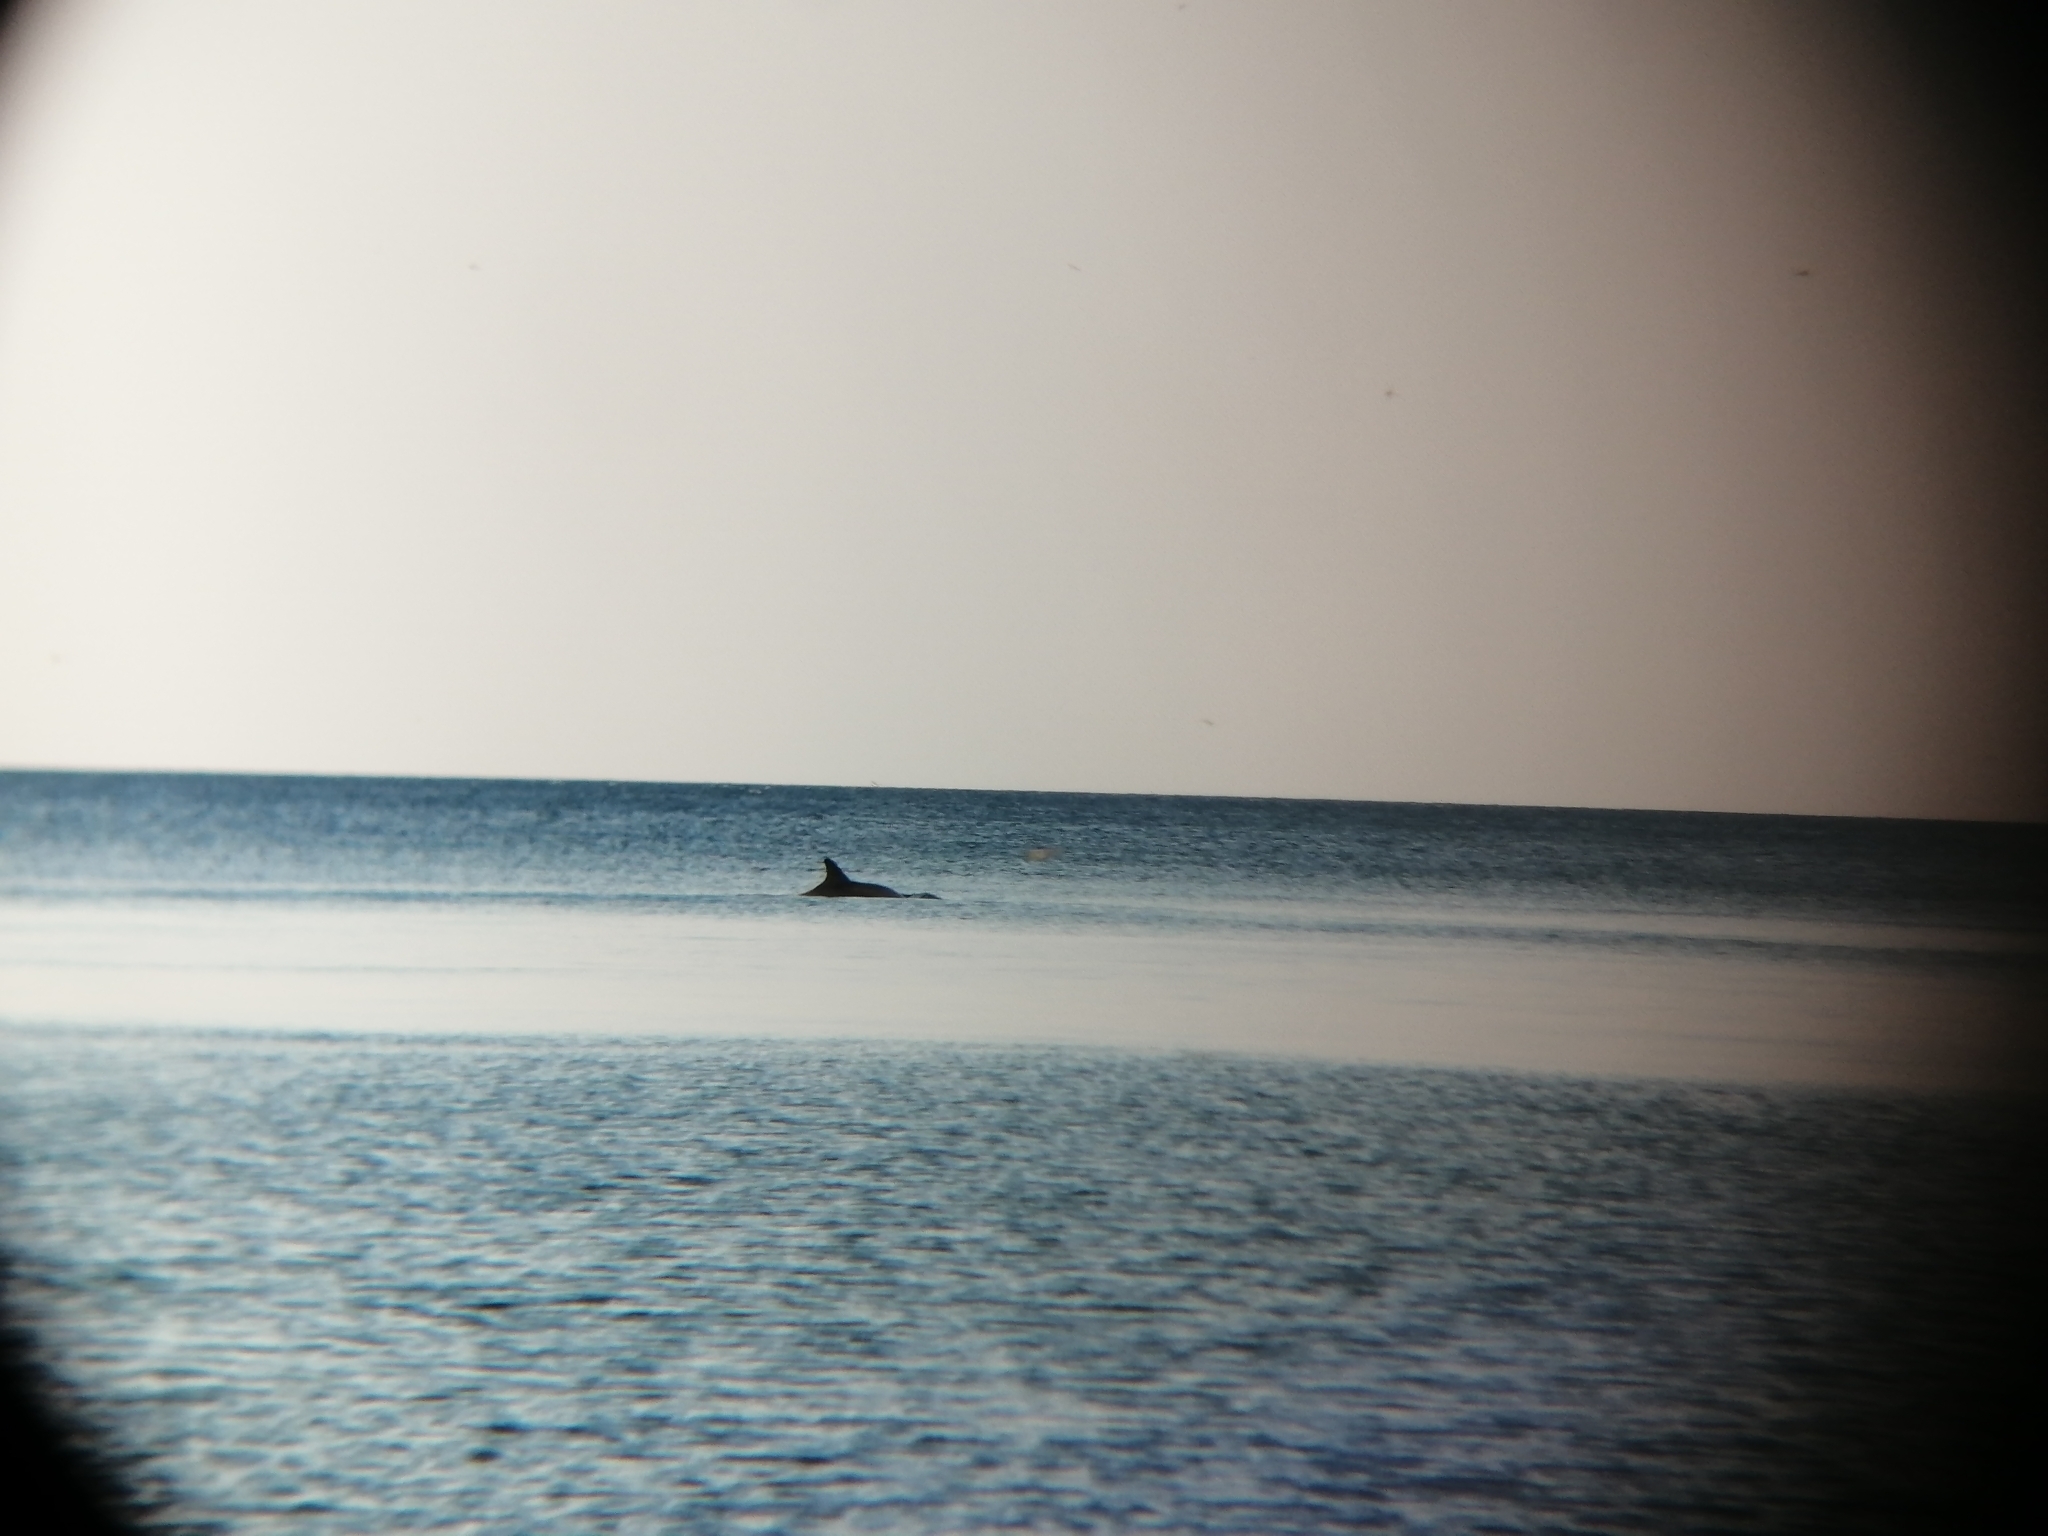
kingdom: Animalia
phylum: Chordata
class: Mammalia
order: Cetacea
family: Delphinidae
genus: Tursiops
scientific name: Tursiops truncatus
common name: Bottlenose dolphin
